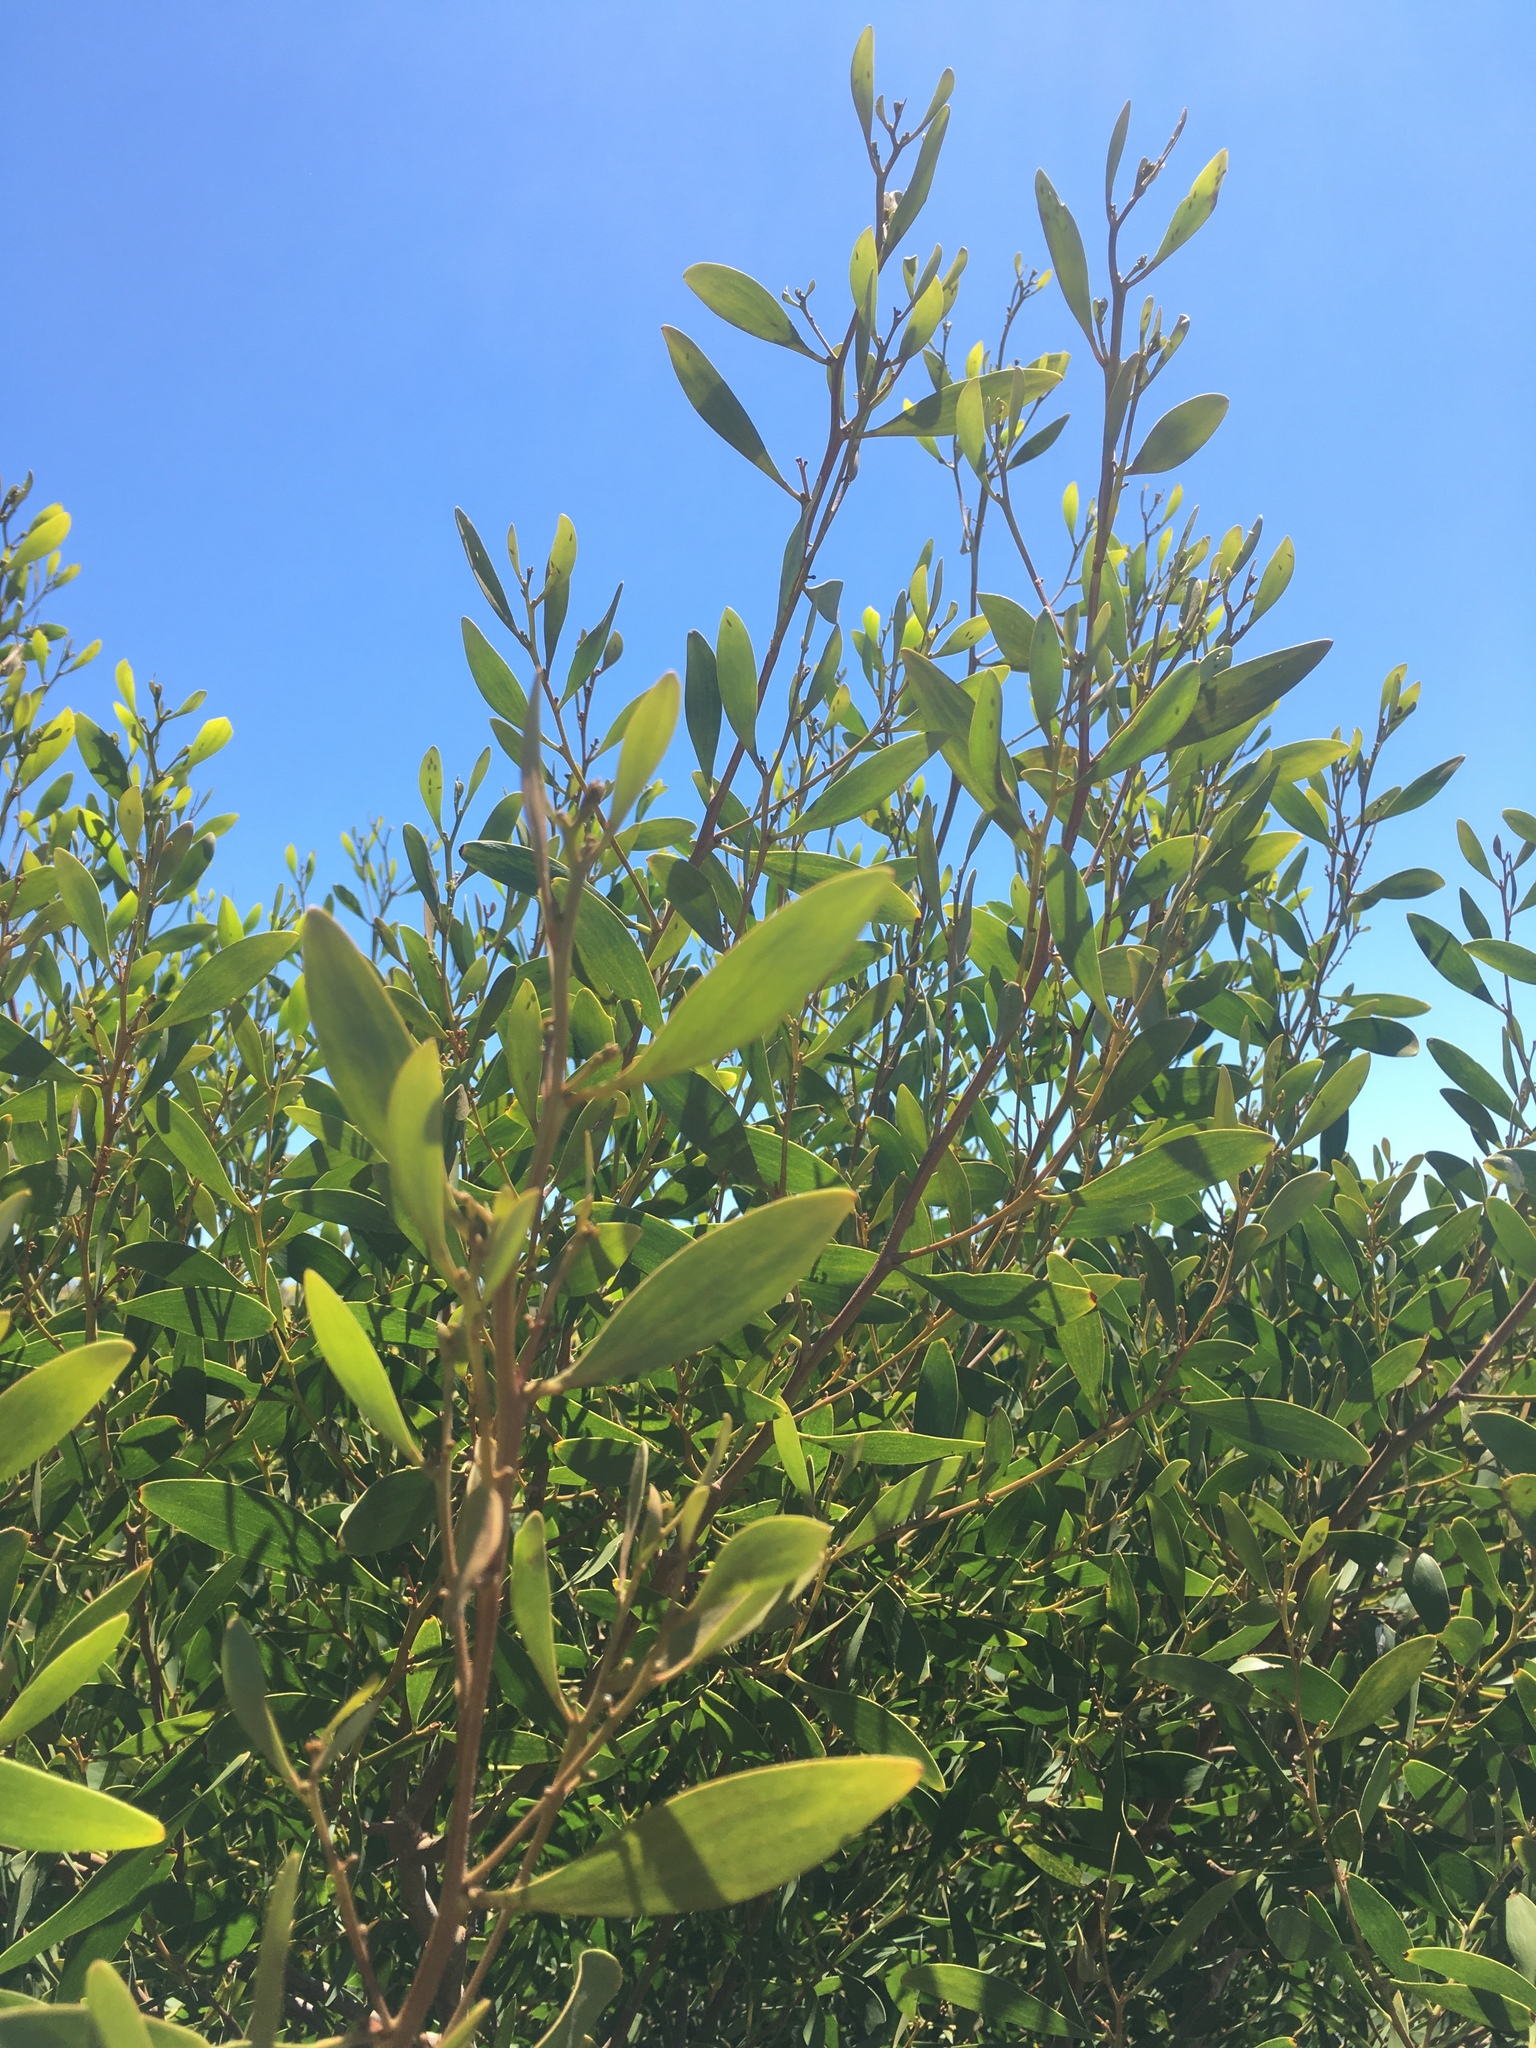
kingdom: Plantae
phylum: Tracheophyta
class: Magnoliopsida
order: Fabales
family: Fabaceae
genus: Acacia
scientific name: Acacia melanoxylon
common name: Blackwood
